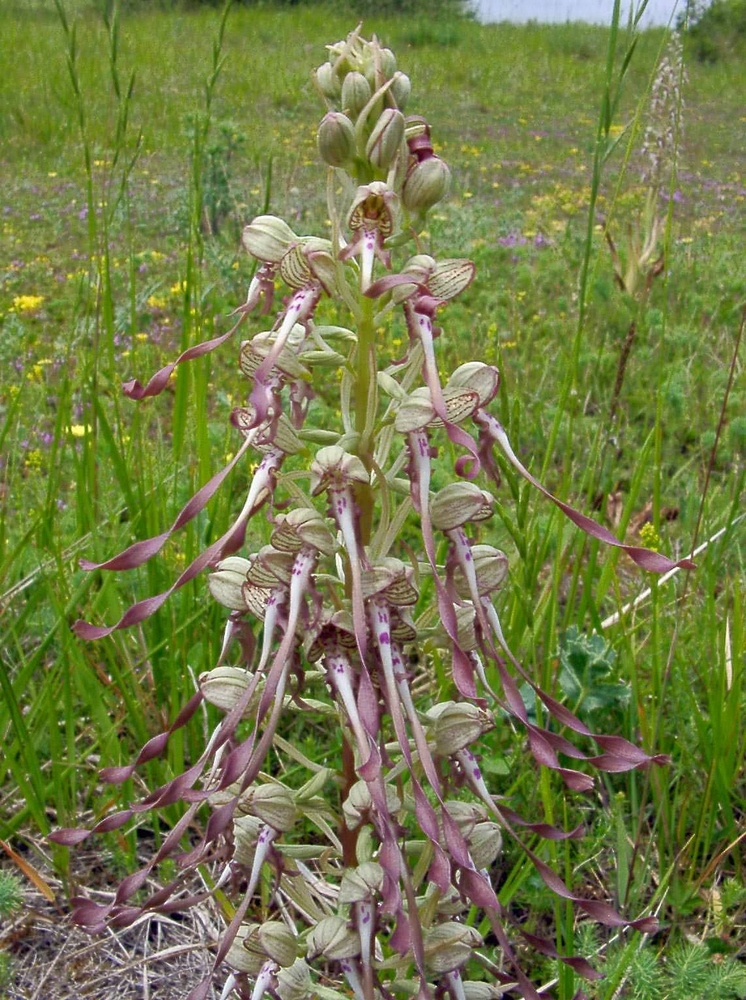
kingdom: Plantae
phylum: Tracheophyta
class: Liliopsida
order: Asparagales
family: Orchidaceae
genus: Himantoglossum
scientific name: Himantoglossum hircinum
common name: Lizard orchid
